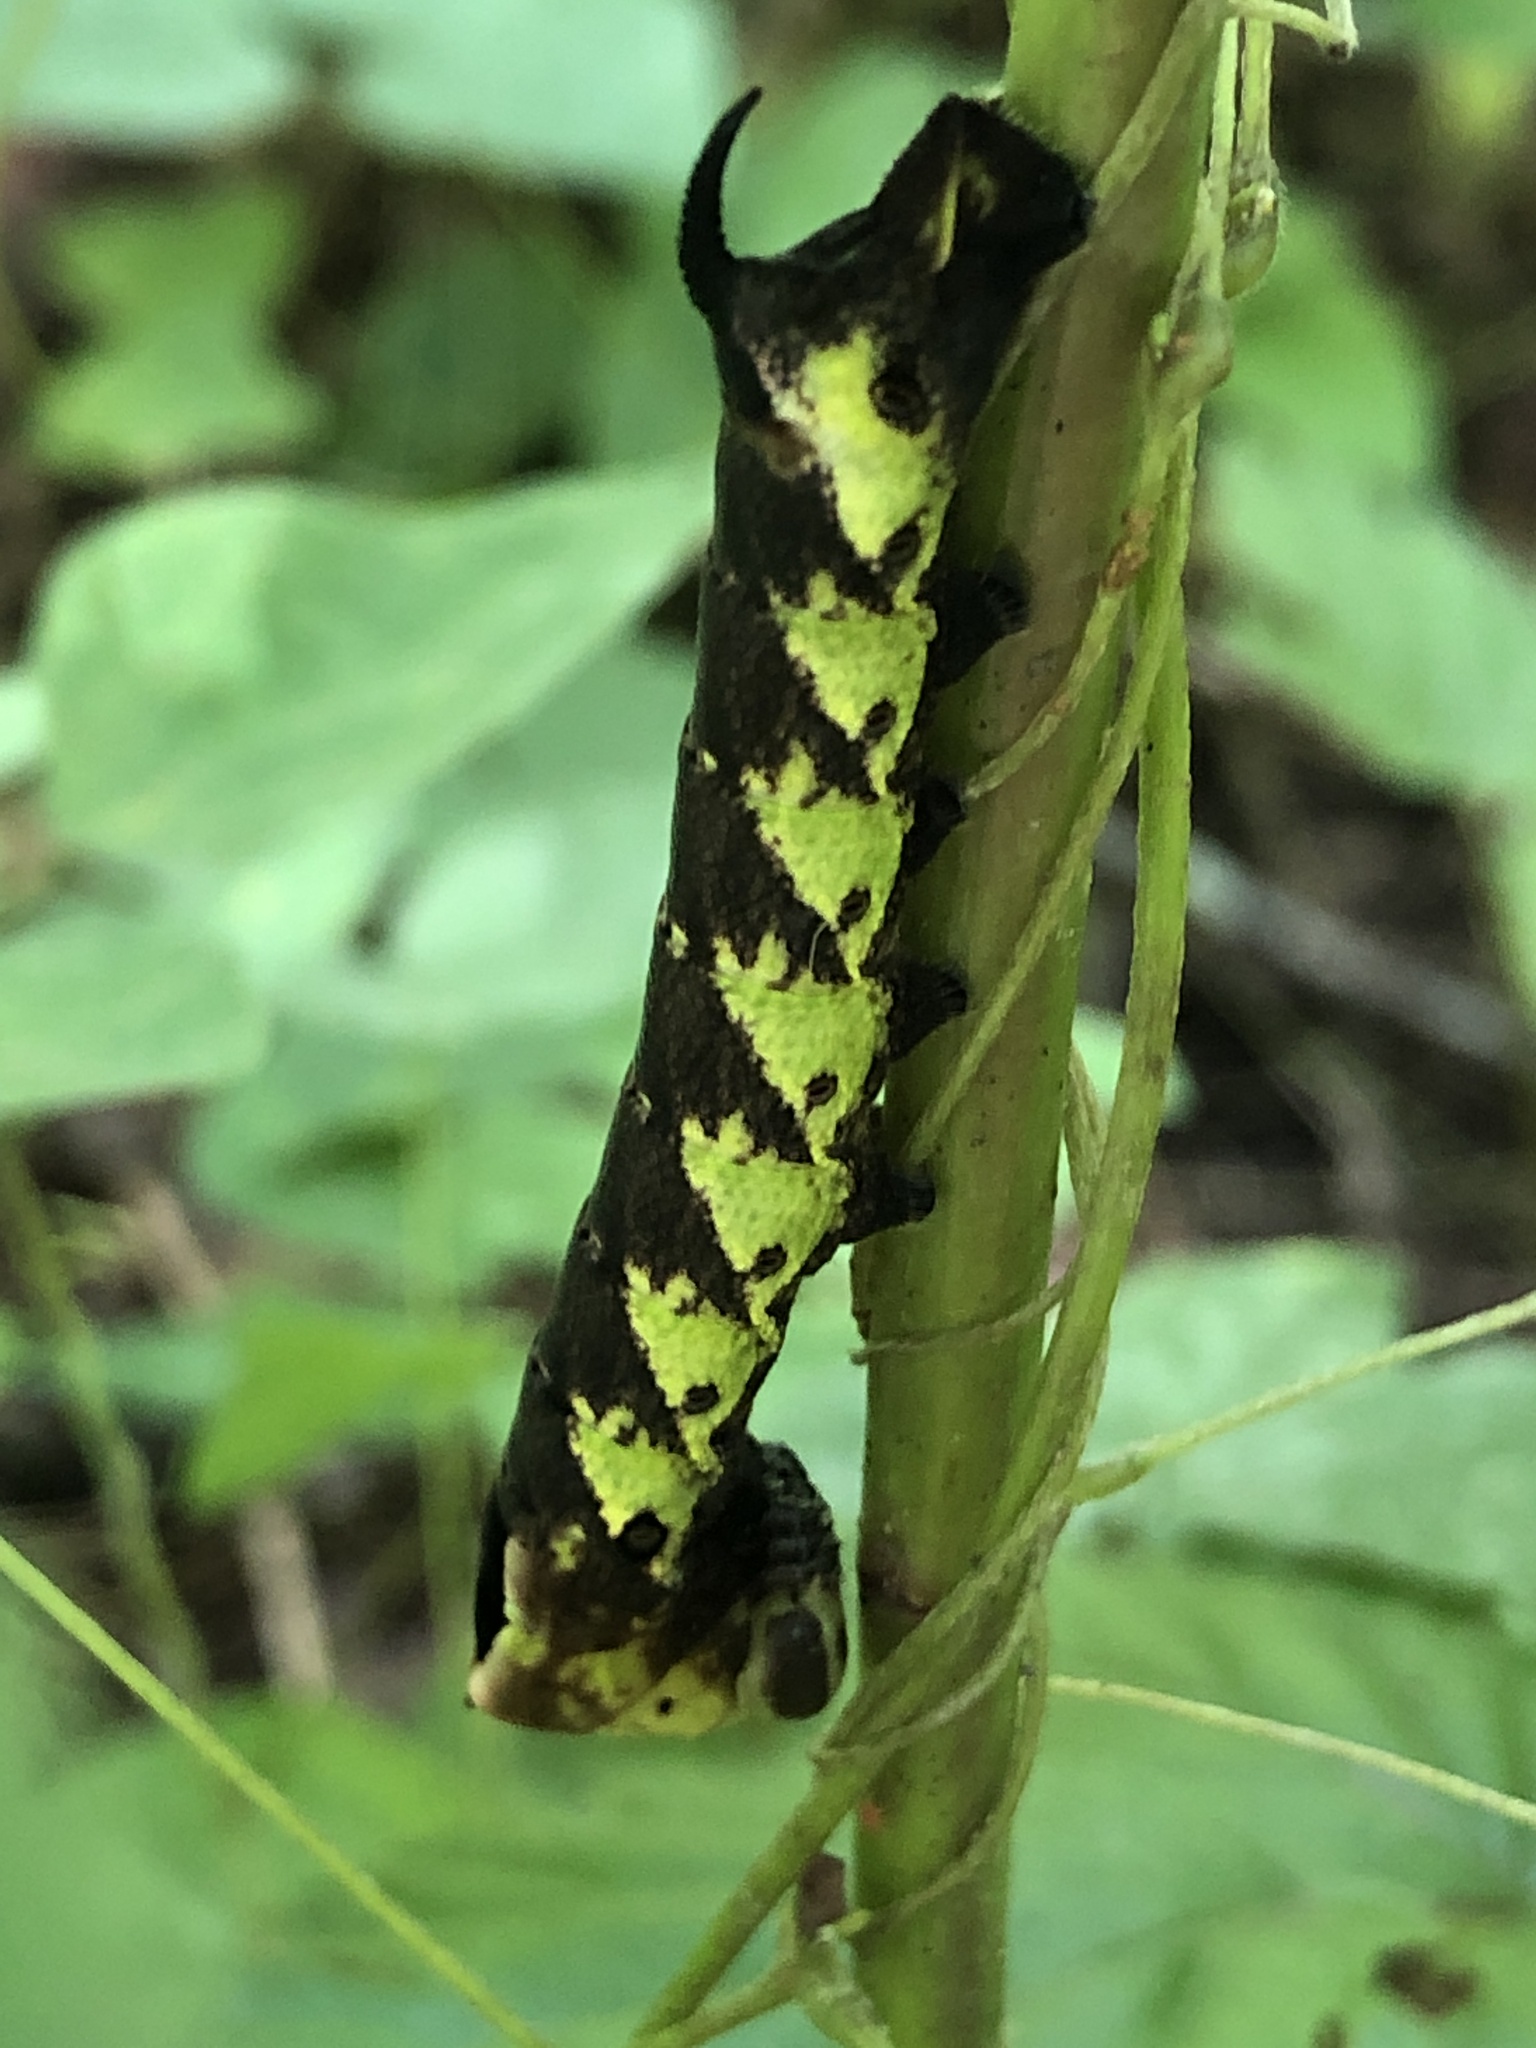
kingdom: Animalia
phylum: Arthropoda
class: Insecta
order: Lepidoptera
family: Sphingidae
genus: Lintneria
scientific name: Lintneria eremitus
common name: Hermit sphinx
